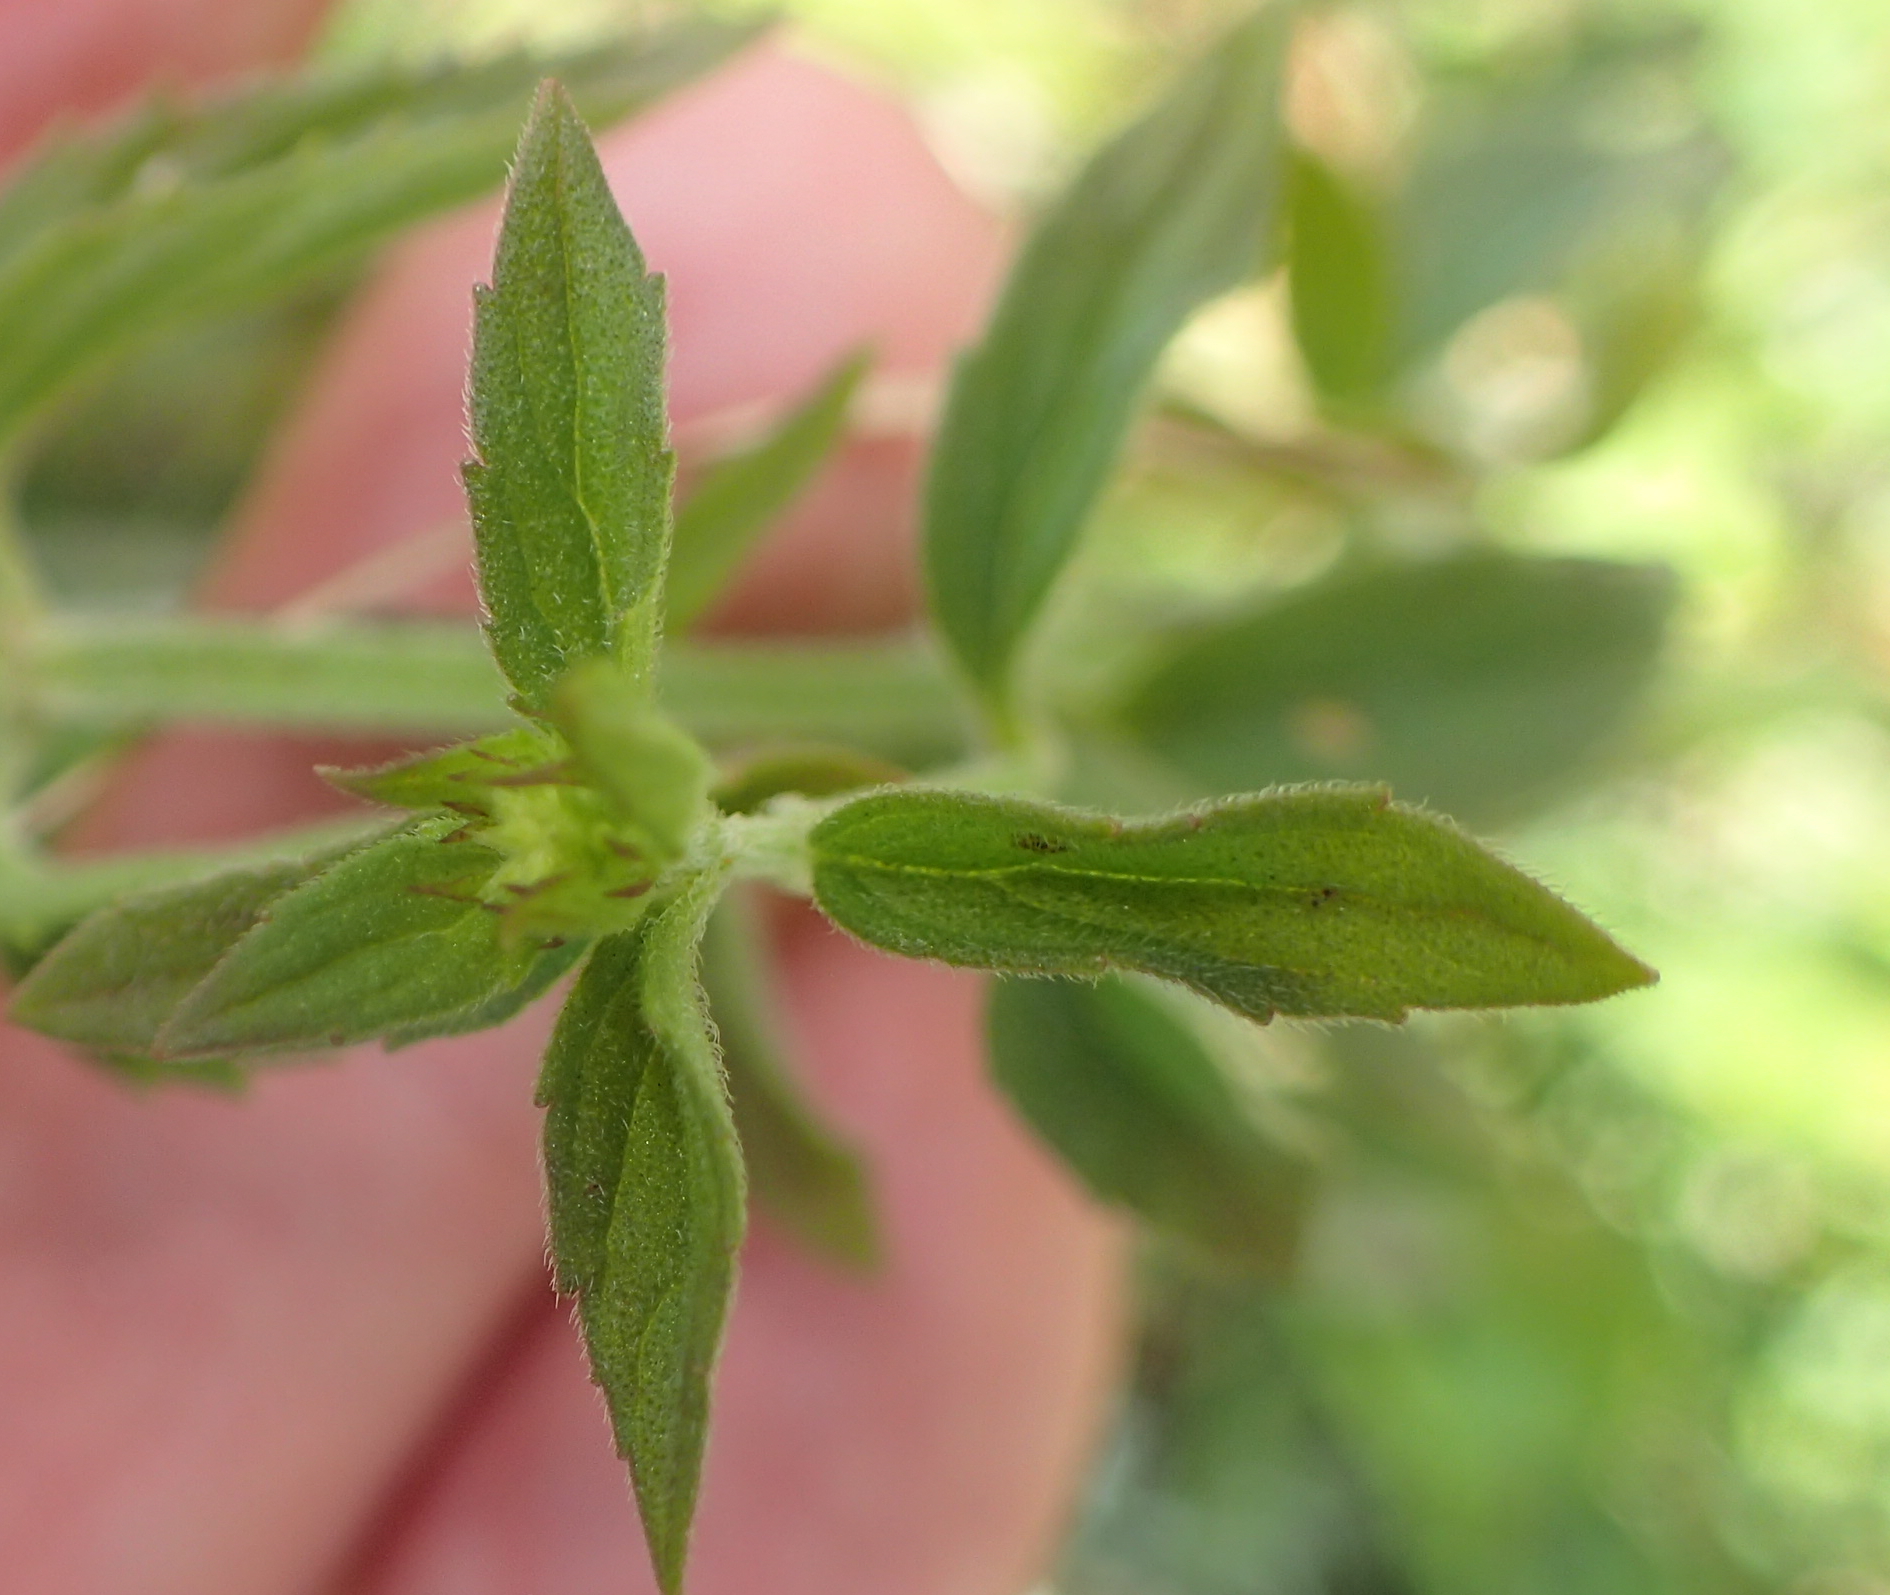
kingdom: Plantae
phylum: Tracheophyta
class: Magnoliopsida
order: Lamiales
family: Lamiaceae
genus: Mentha
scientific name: Mentha aquatica
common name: Water mint
